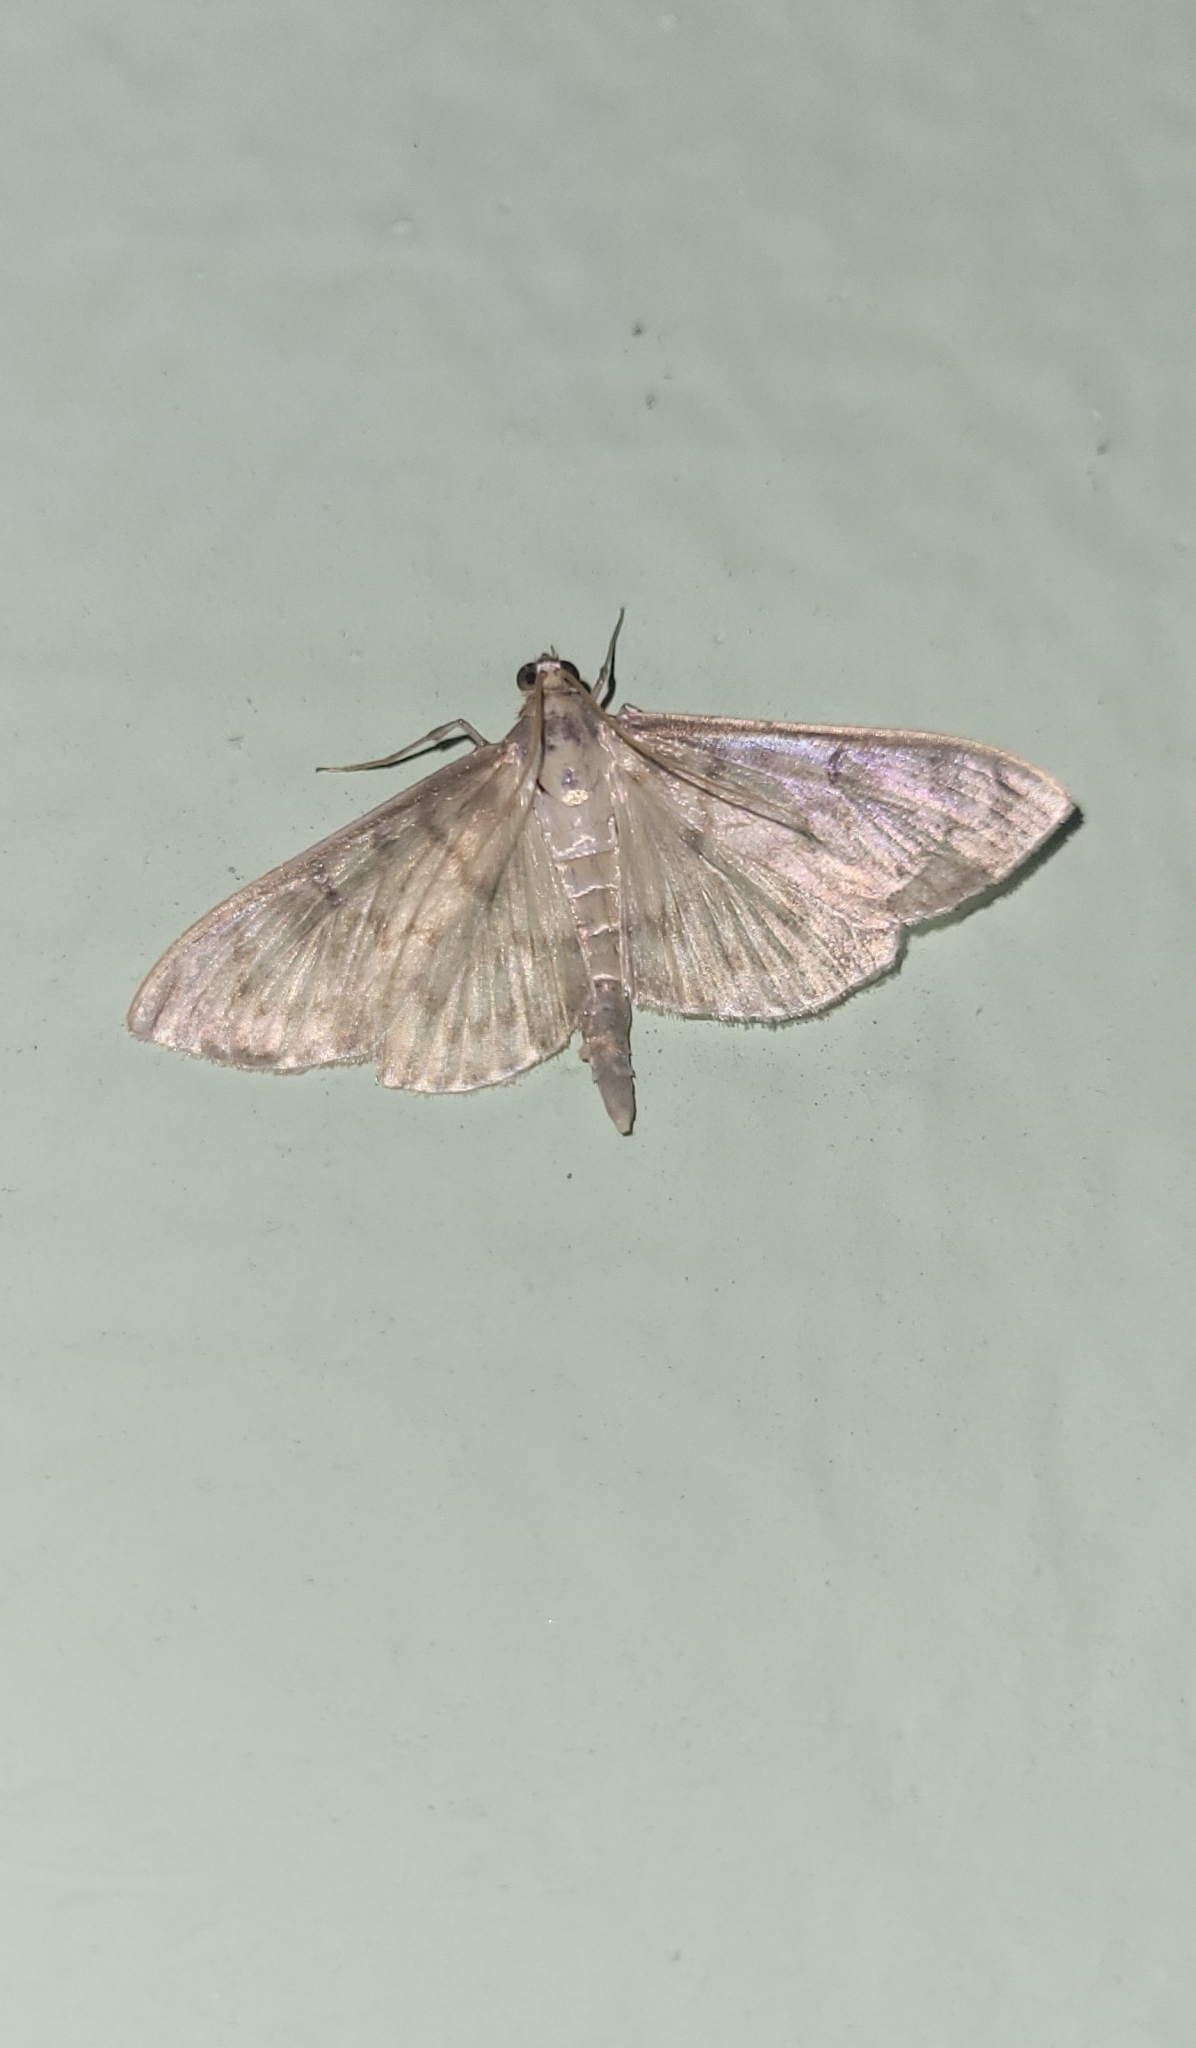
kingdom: Animalia
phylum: Arthropoda
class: Insecta
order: Lepidoptera
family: Crambidae
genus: Patania
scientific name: Patania ruralis
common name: Mother of pearl
